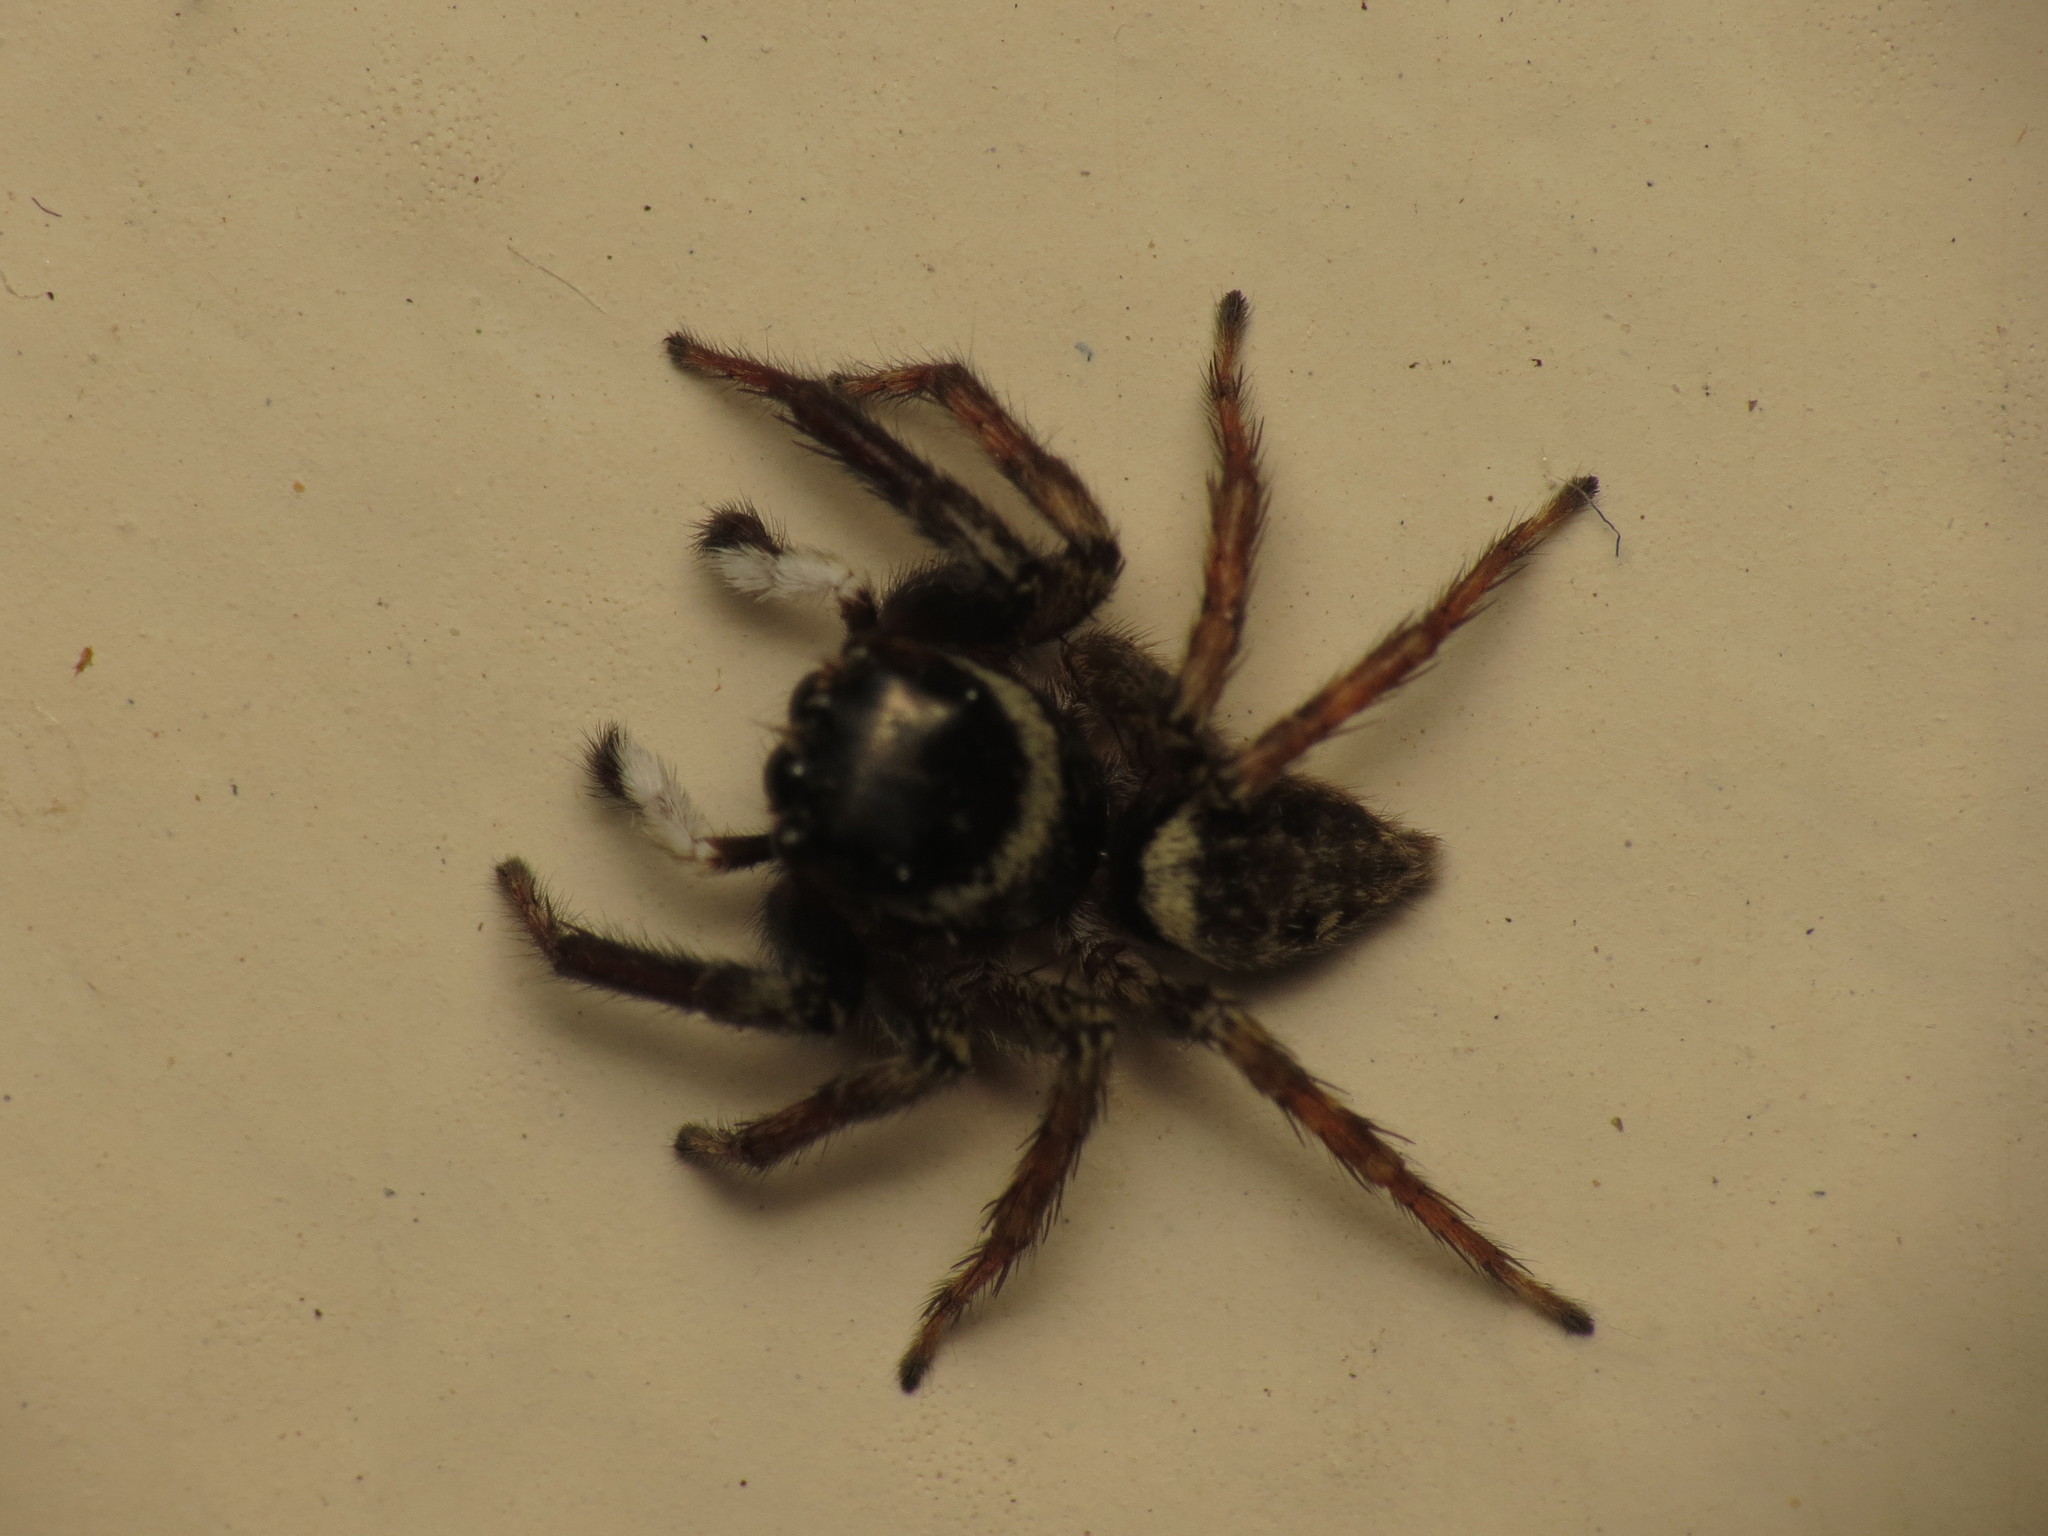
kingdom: Animalia
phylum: Arthropoda
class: Arachnida
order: Araneae
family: Salticidae
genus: Hasarius
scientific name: Hasarius adansoni
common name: Jumping spider
